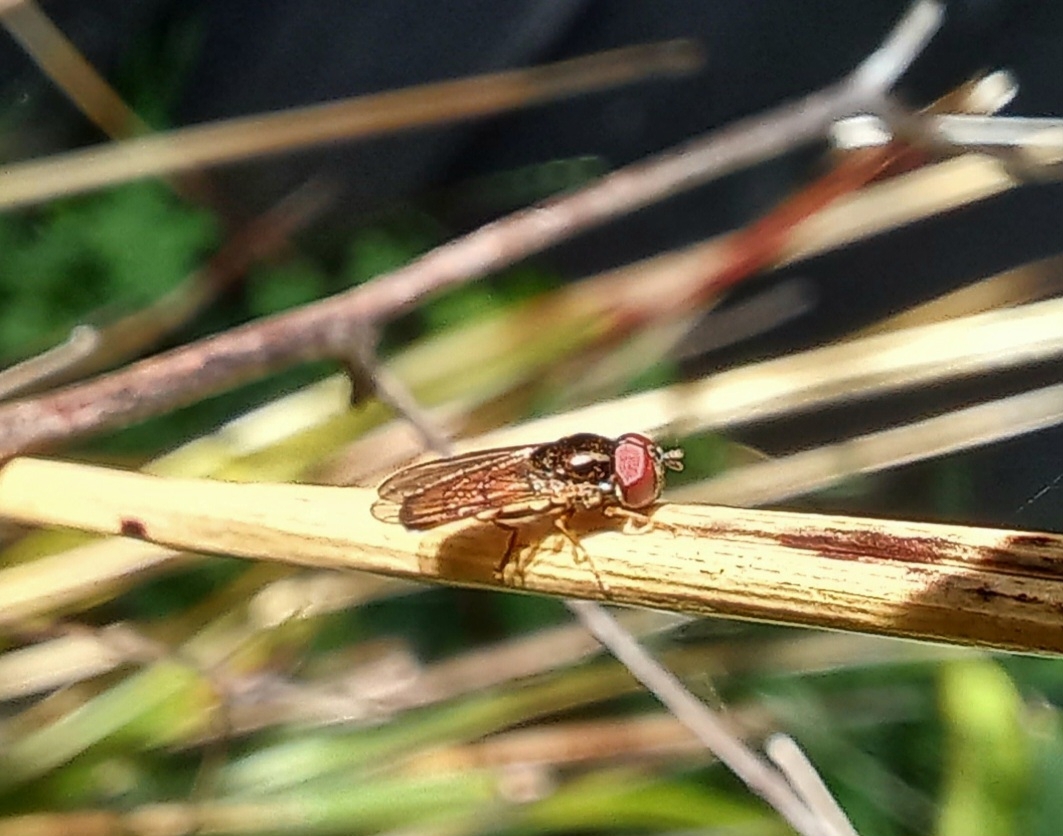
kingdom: Animalia
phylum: Arthropoda
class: Insecta
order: Diptera
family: Syrphidae
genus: Melanostoma
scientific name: Melanostoma fasciatum
